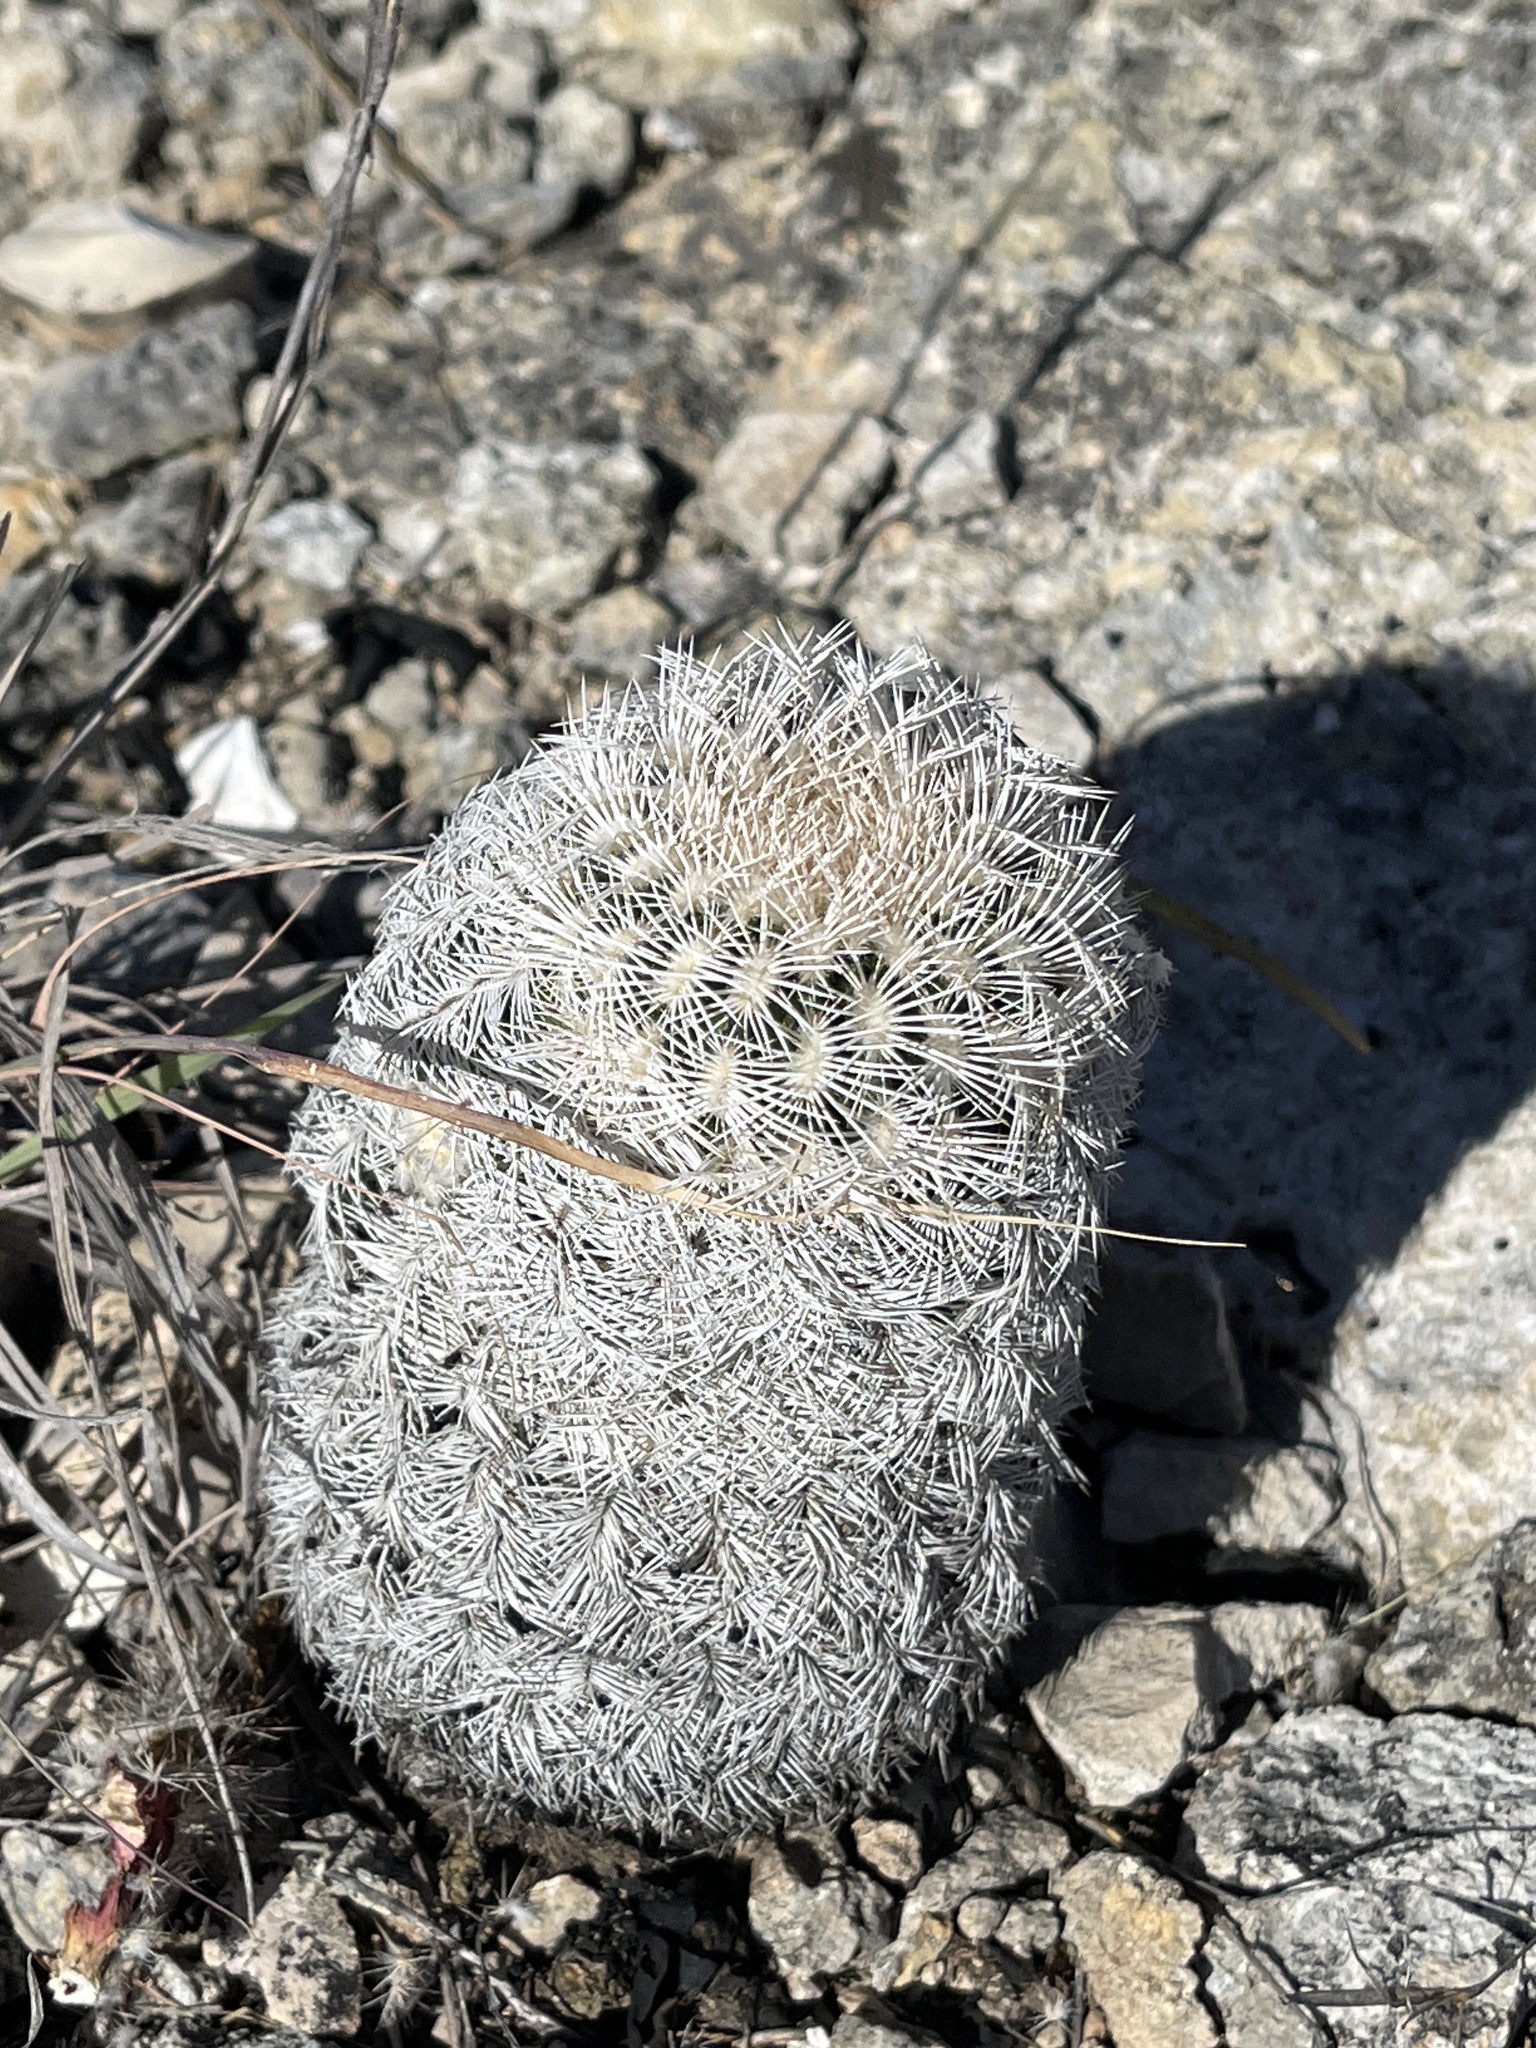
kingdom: Plantae
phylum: Tracheophyta
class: Magnoliopsida
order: Caryophyllales
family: Cactaceae
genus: Echinocereus
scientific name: Echinocereus reichenbachii
